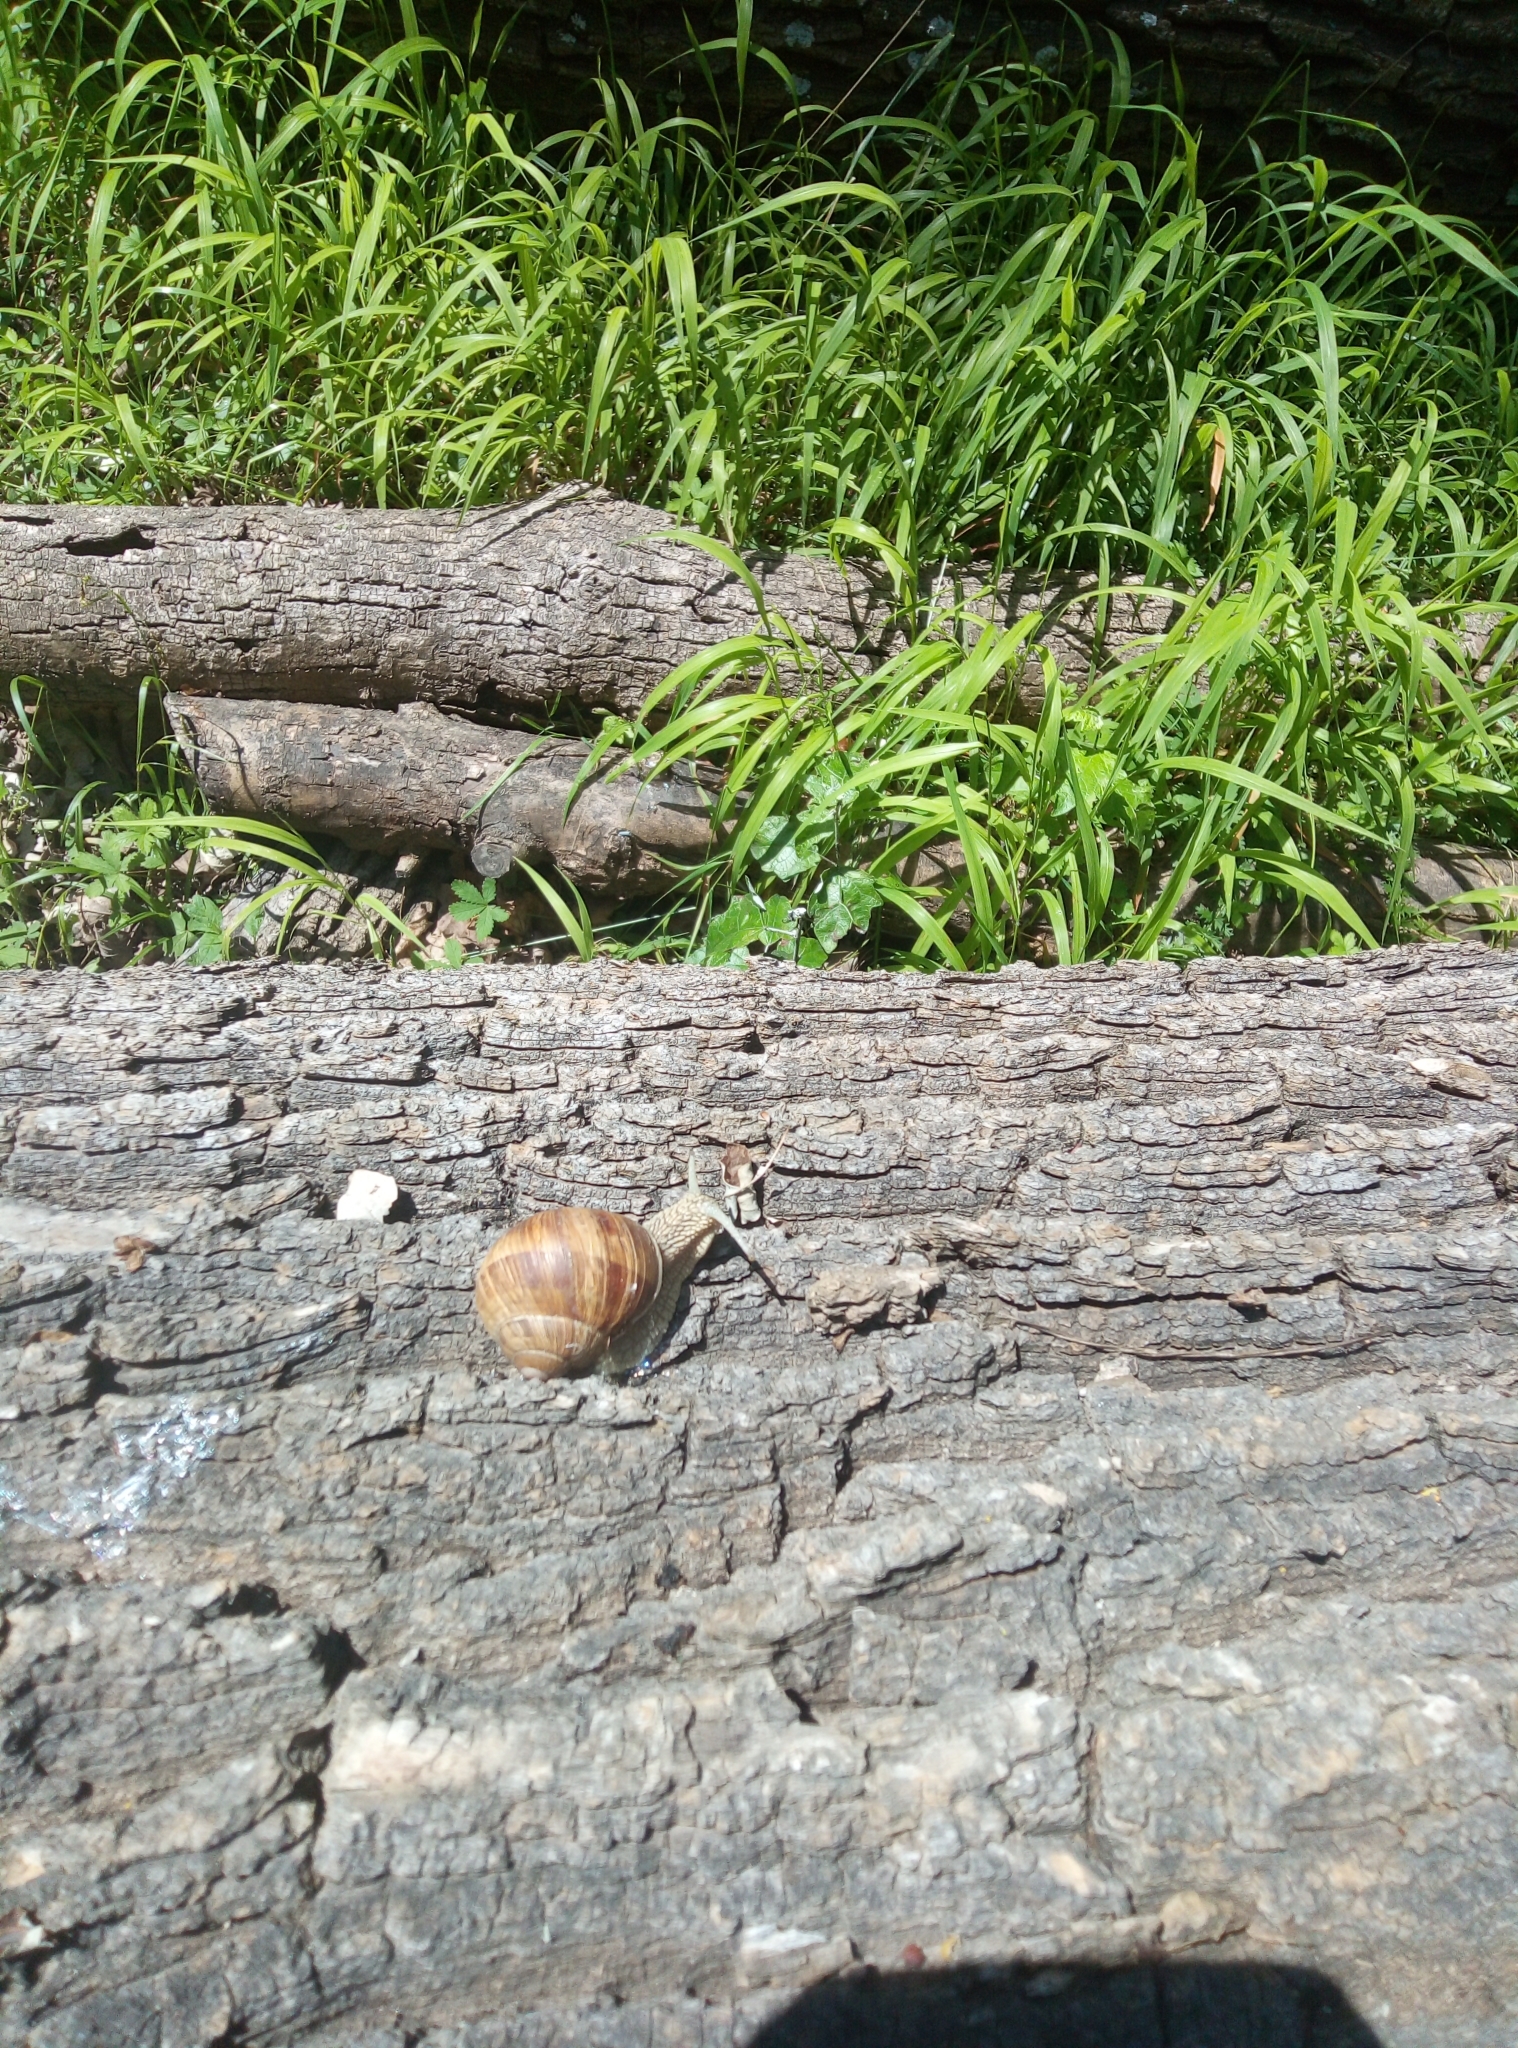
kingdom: Animalia
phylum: Mollusca
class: Gastropoda
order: Stylommatophora
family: Helicidae
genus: Helix
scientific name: Helix pomatia
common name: Roman snail
